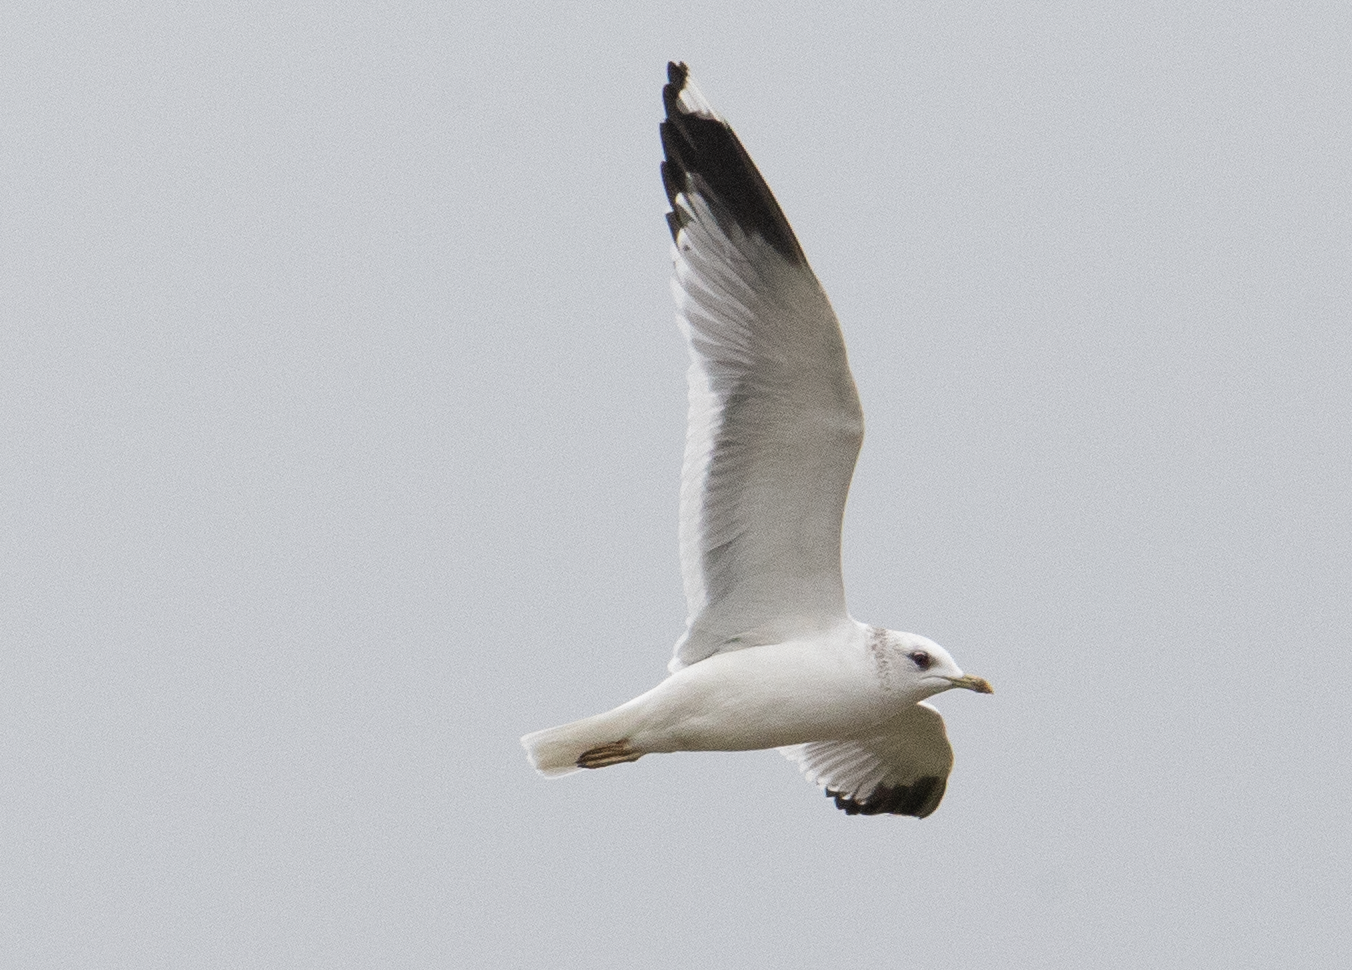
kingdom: Animalia
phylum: Chordata
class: Aves
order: Charadriiformes
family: Laridae
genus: Larus
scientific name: Larus canus
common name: Mew gull
